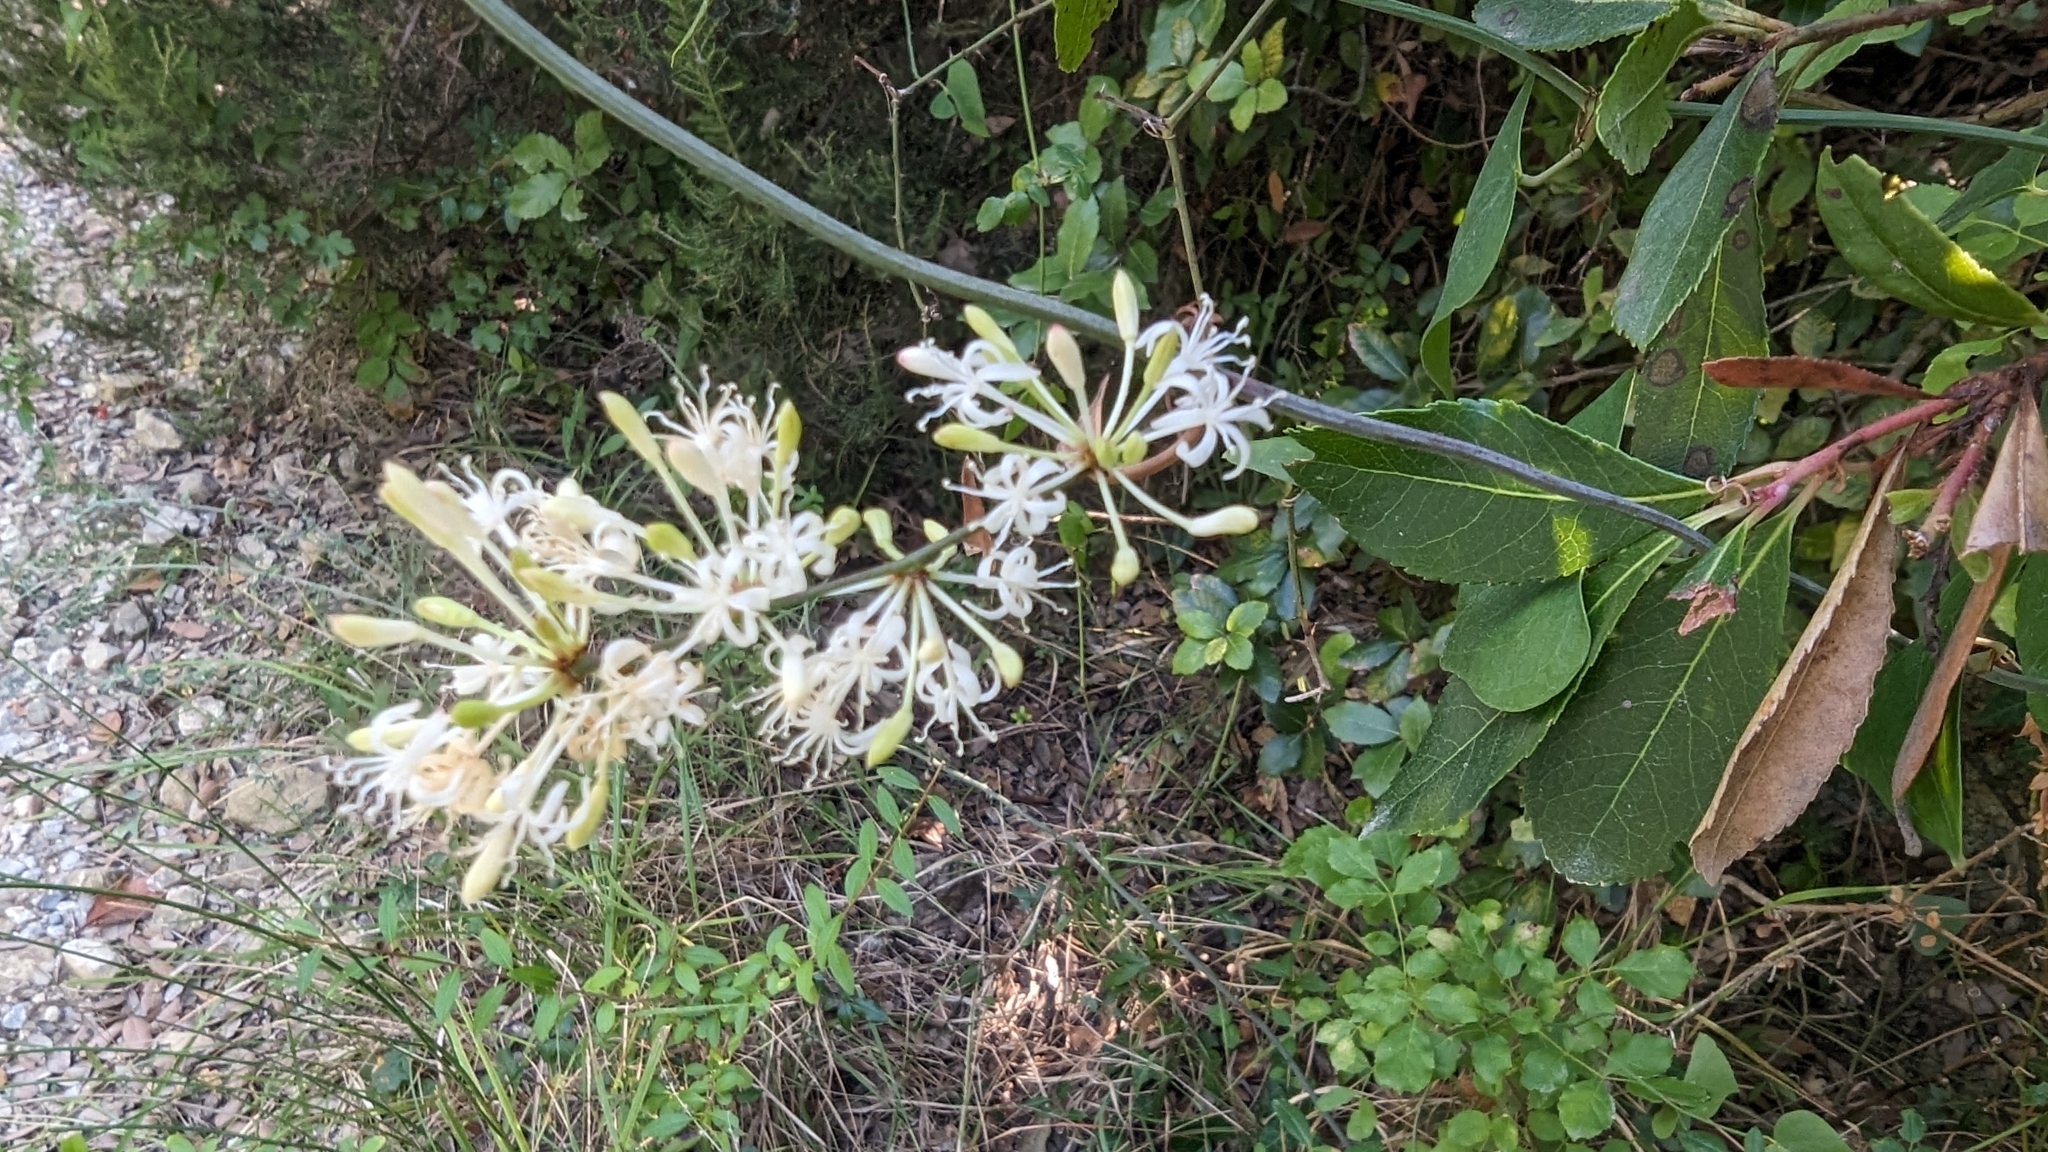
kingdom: Plantae
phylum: Tracheophyta
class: Liliopsida
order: Liliales
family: Smilacaceae
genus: Smilax
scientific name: Smilax aspera
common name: Common smilax
